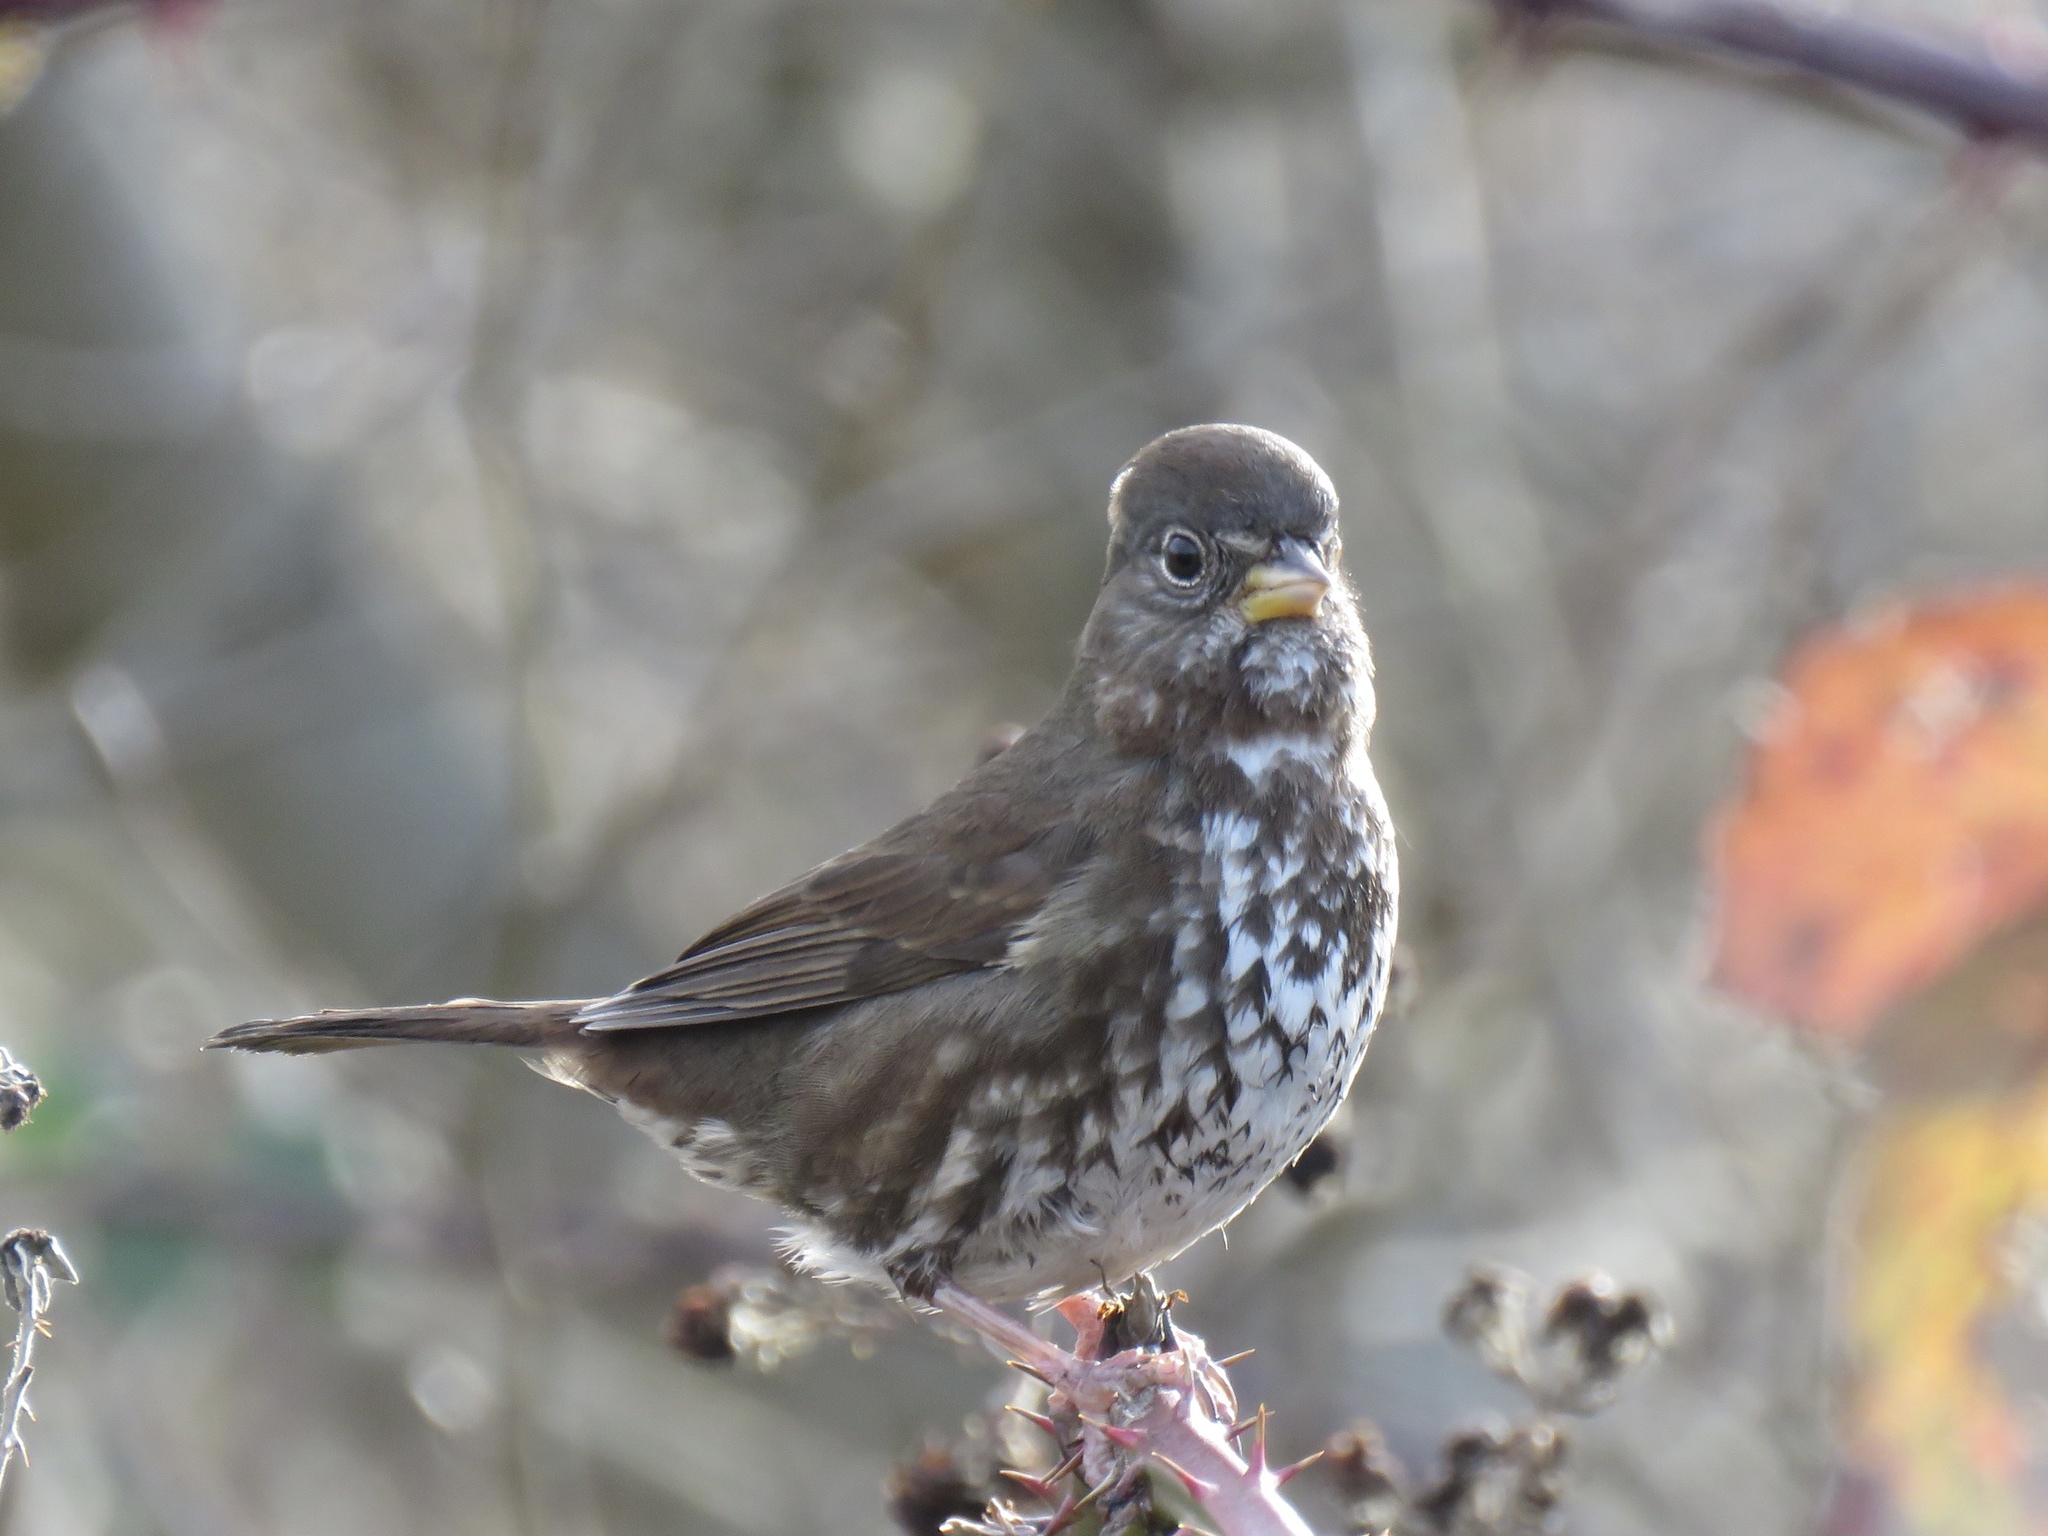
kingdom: Animalia
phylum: Chordata
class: Aves
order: Passeriformes
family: Passerellidae
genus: Passerella
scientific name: Passerella iliaca
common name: Fox sparrow
